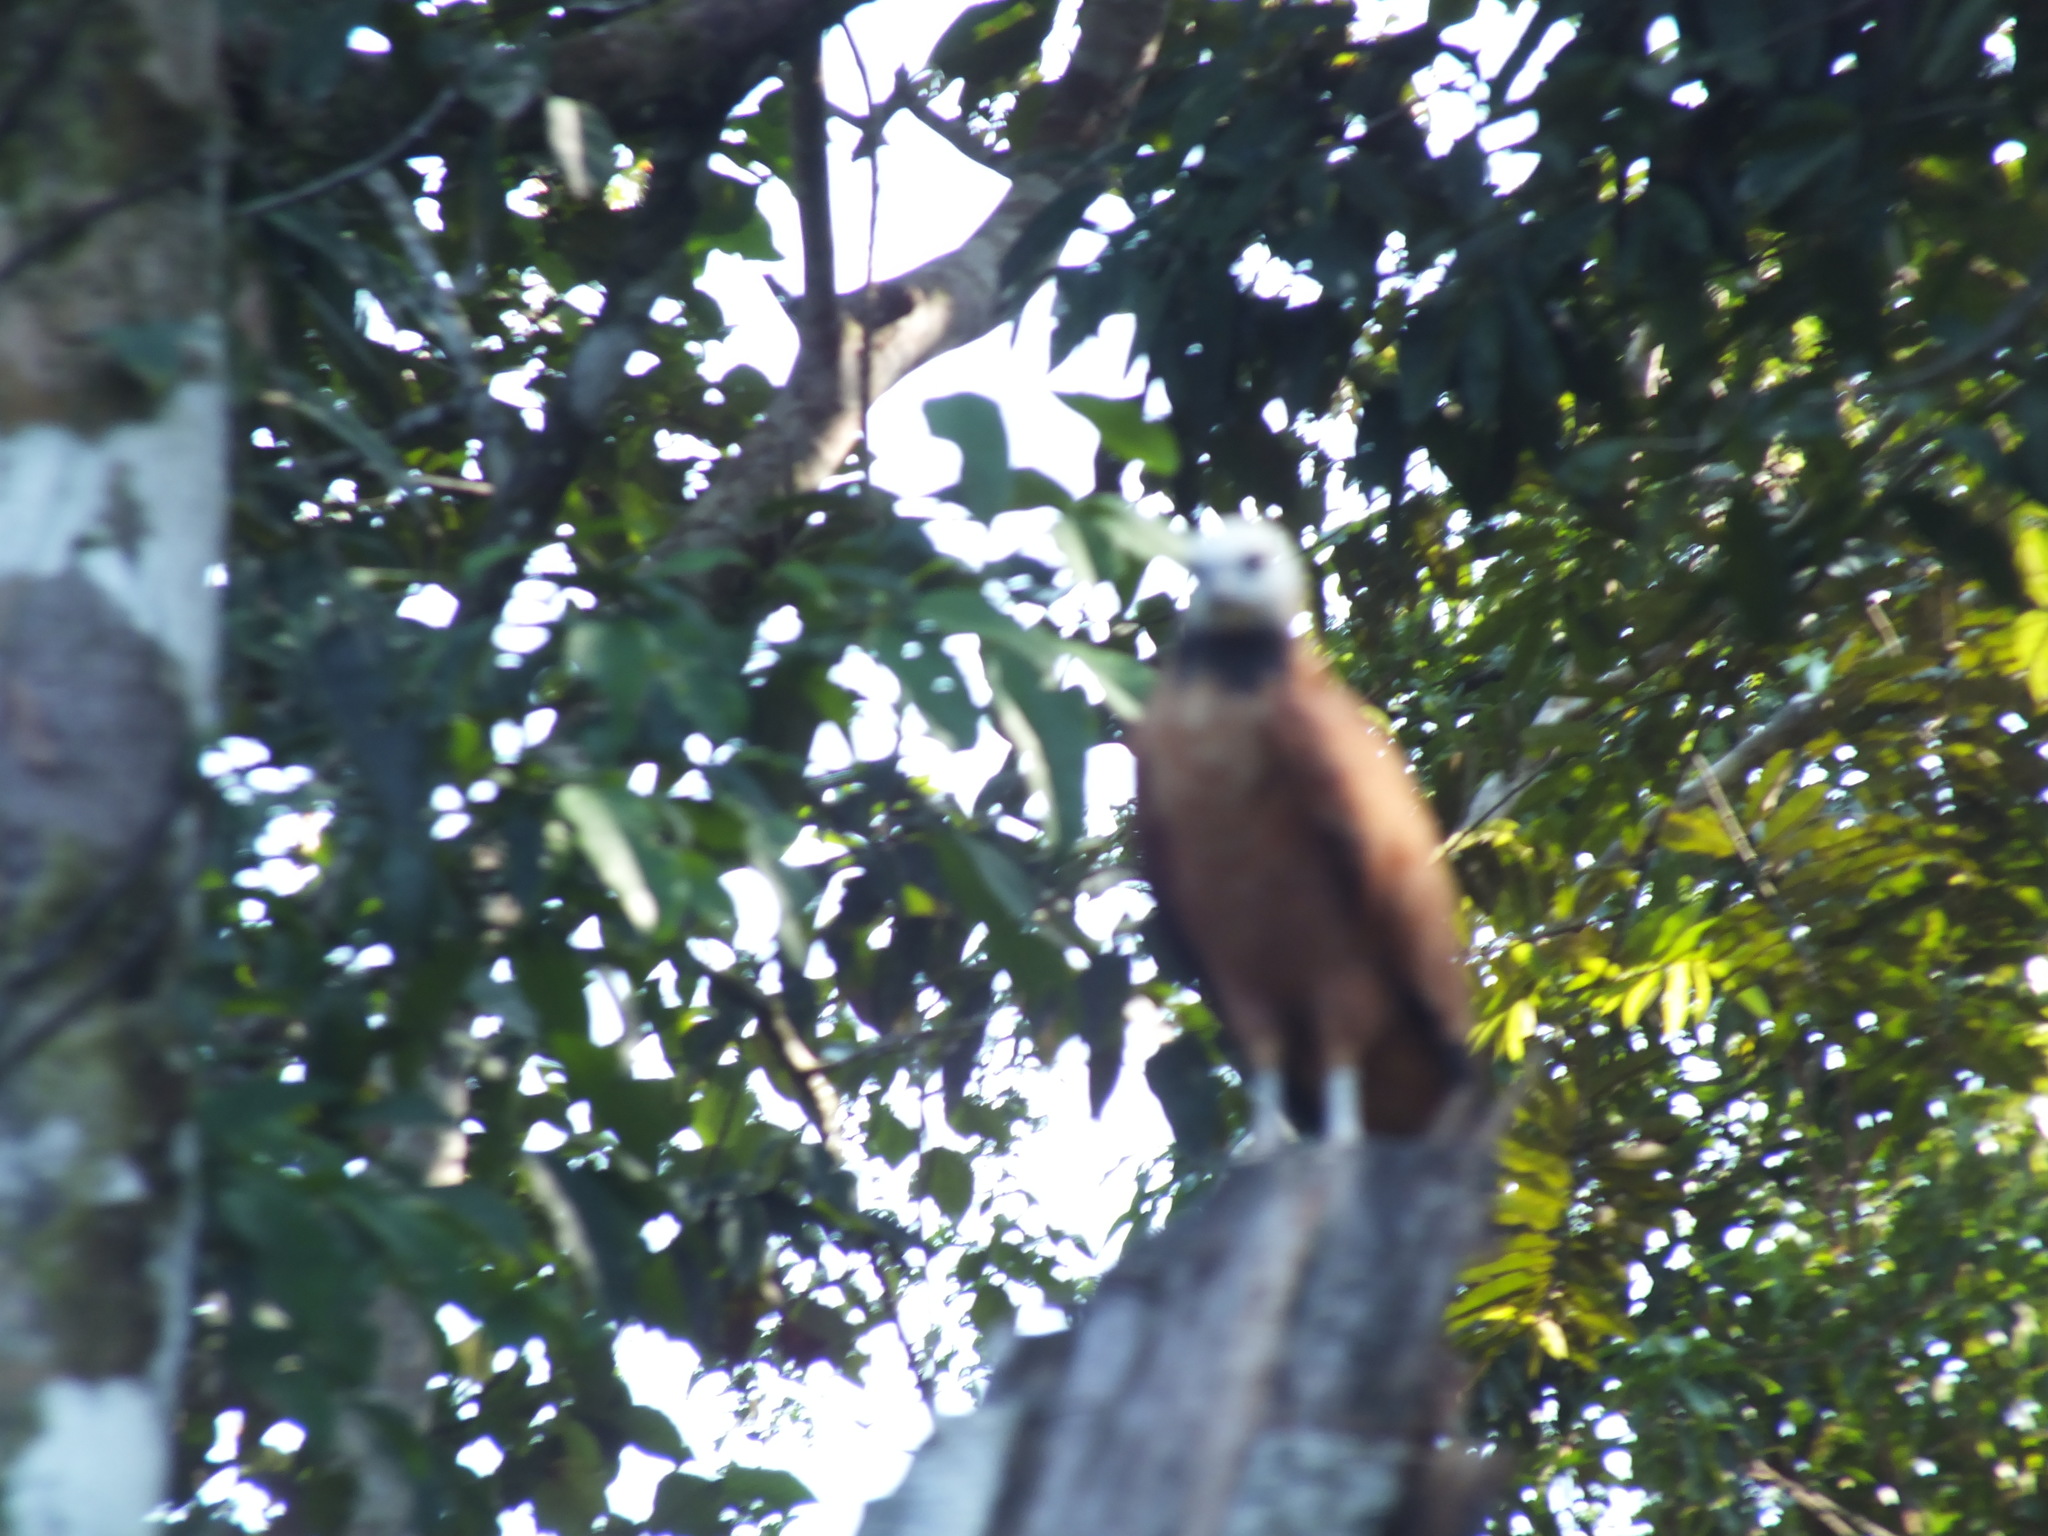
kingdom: Animalia
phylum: Chordata
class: Aves
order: Accipitriformes
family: Accipitridae
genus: Busarellus
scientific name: Busarellus nigricollis
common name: Black-collared hawk
